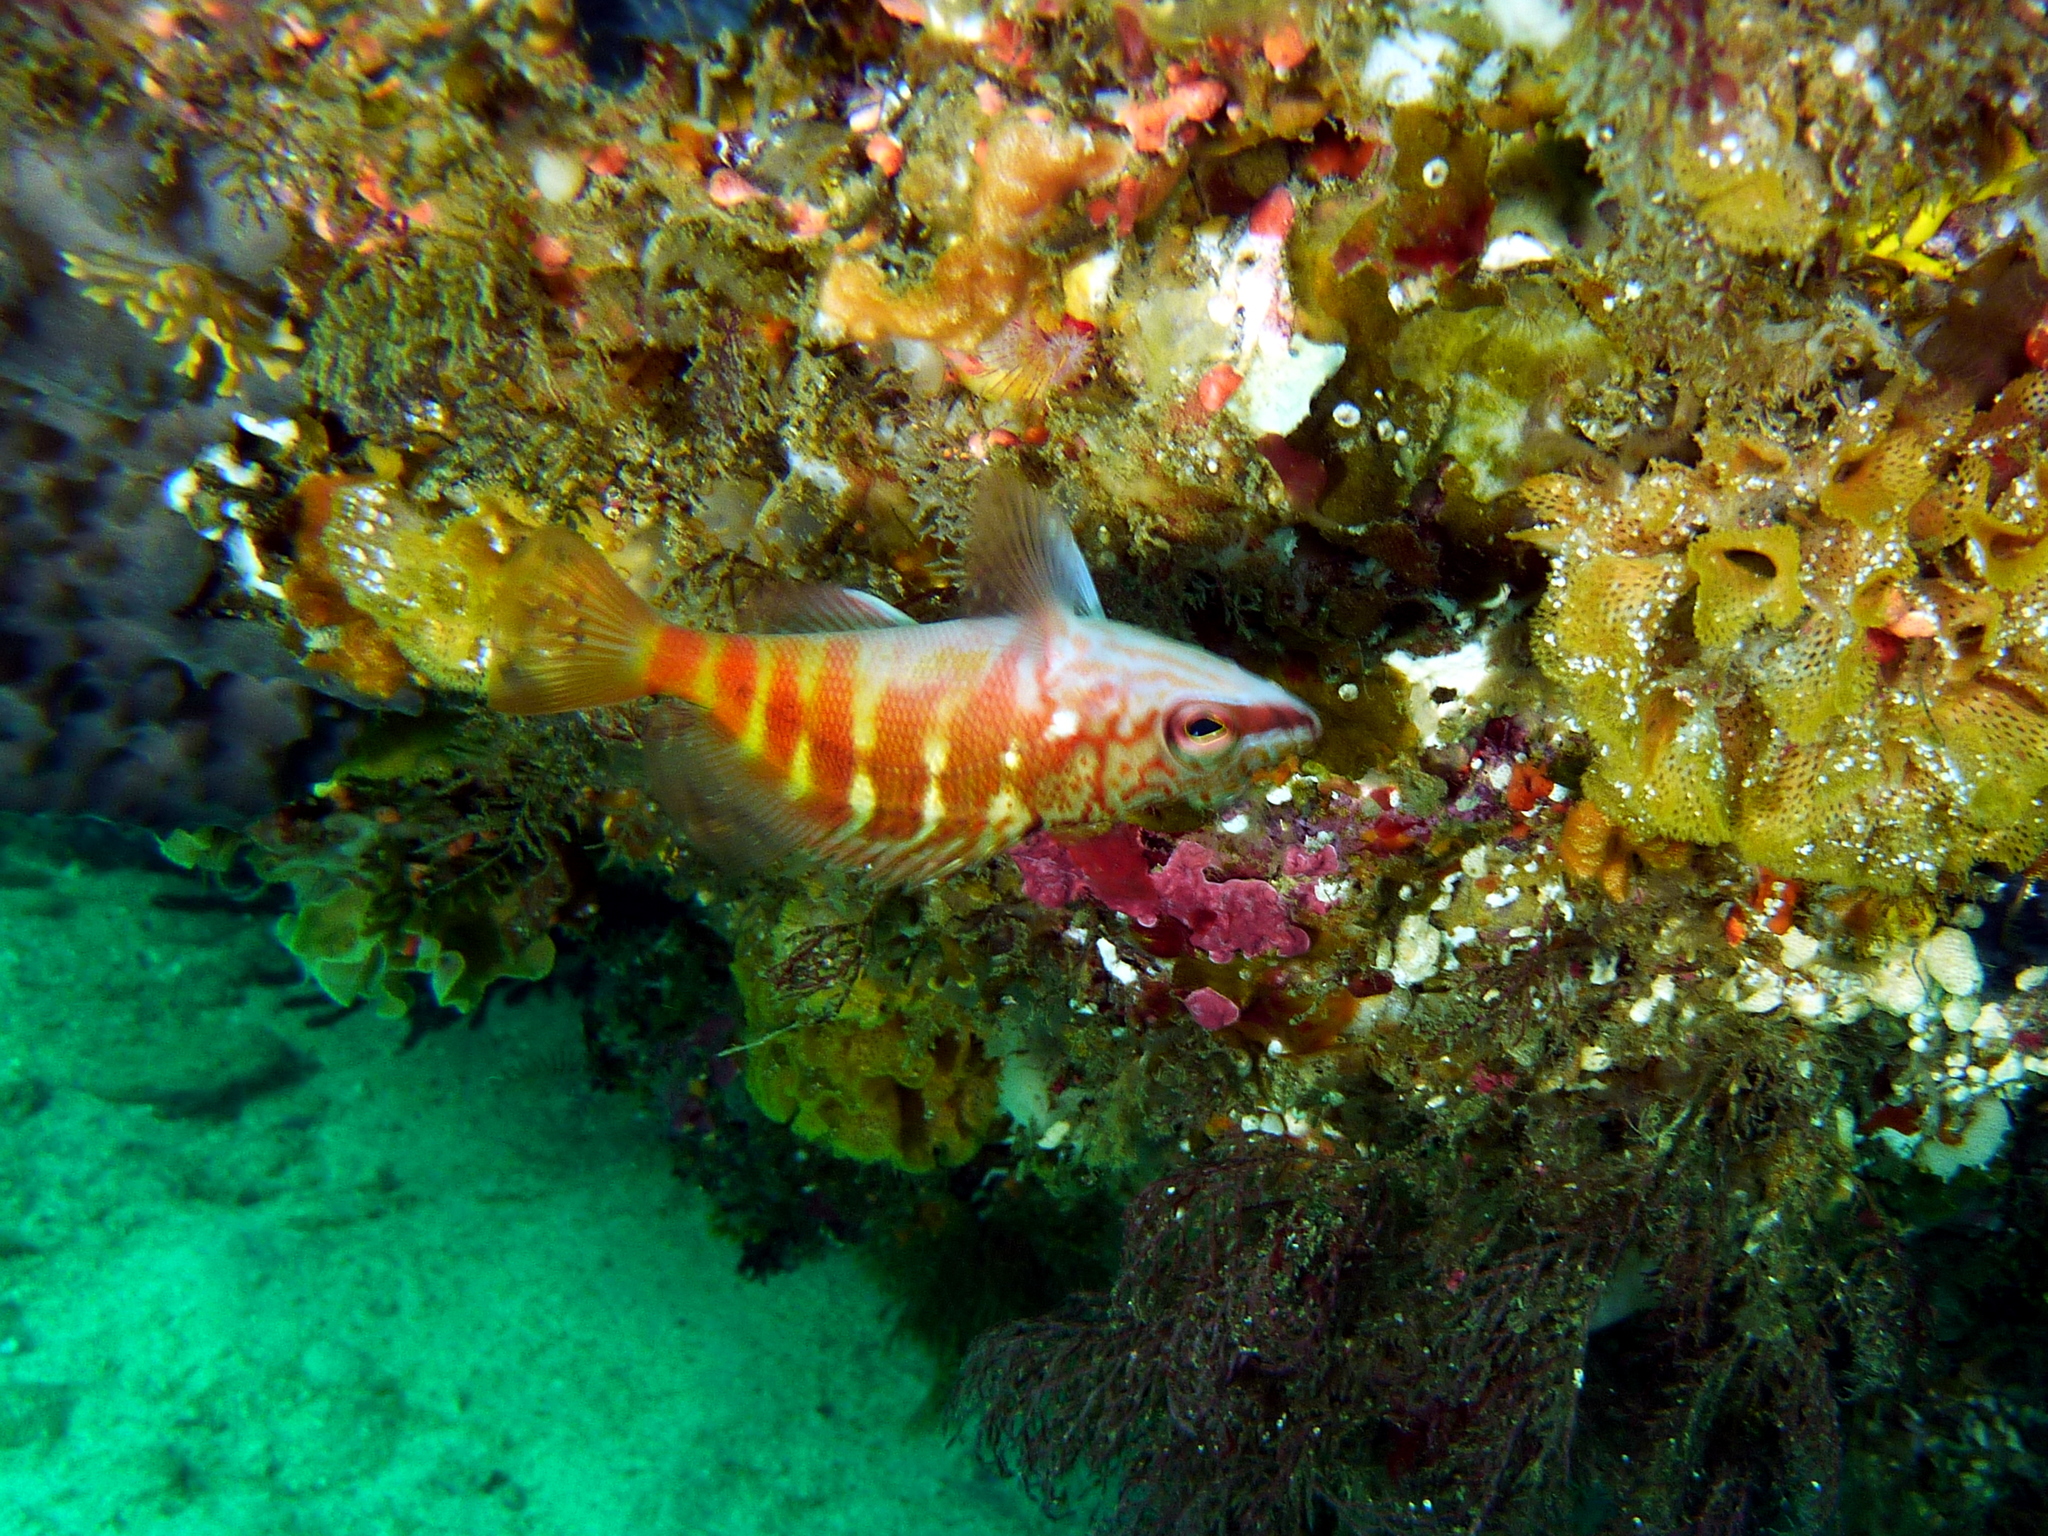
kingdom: Animalia
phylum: Chordata
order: Perciformes
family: Serranidae
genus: Hypoplectrodes
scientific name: Hypoplectrodes maccullochi
